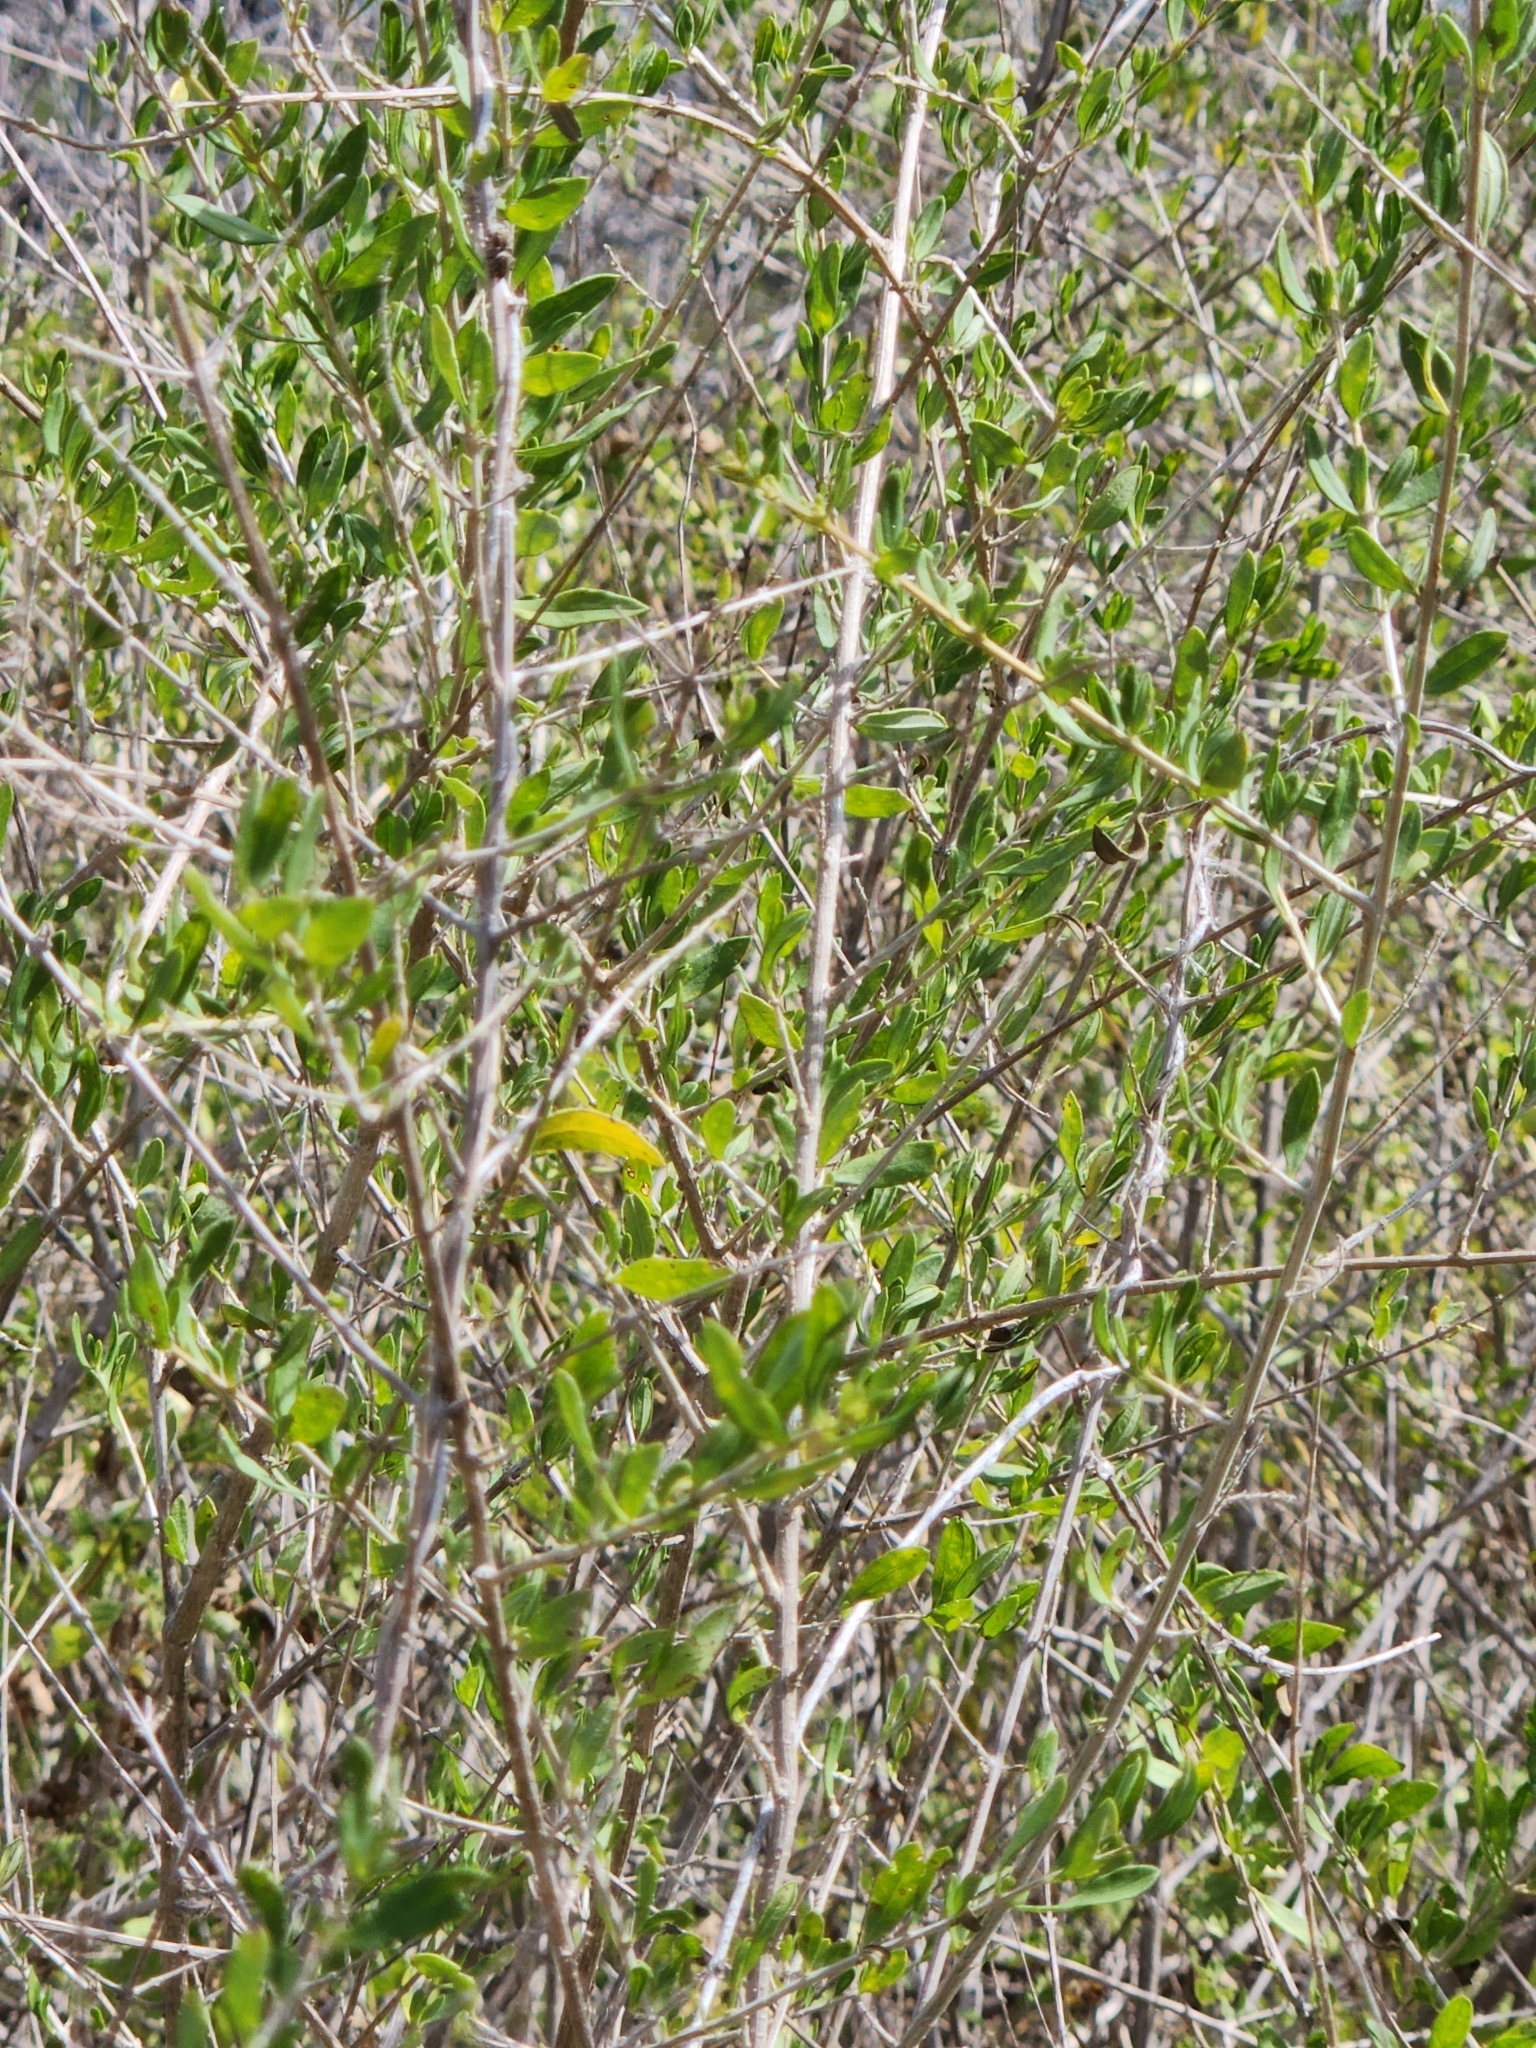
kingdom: Plantae
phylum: Tracheophyta
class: Magnoliopsida
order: Lamiales
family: Verbenaceae
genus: Aloysia
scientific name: Aloysia gratissima
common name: Common bee-brush
